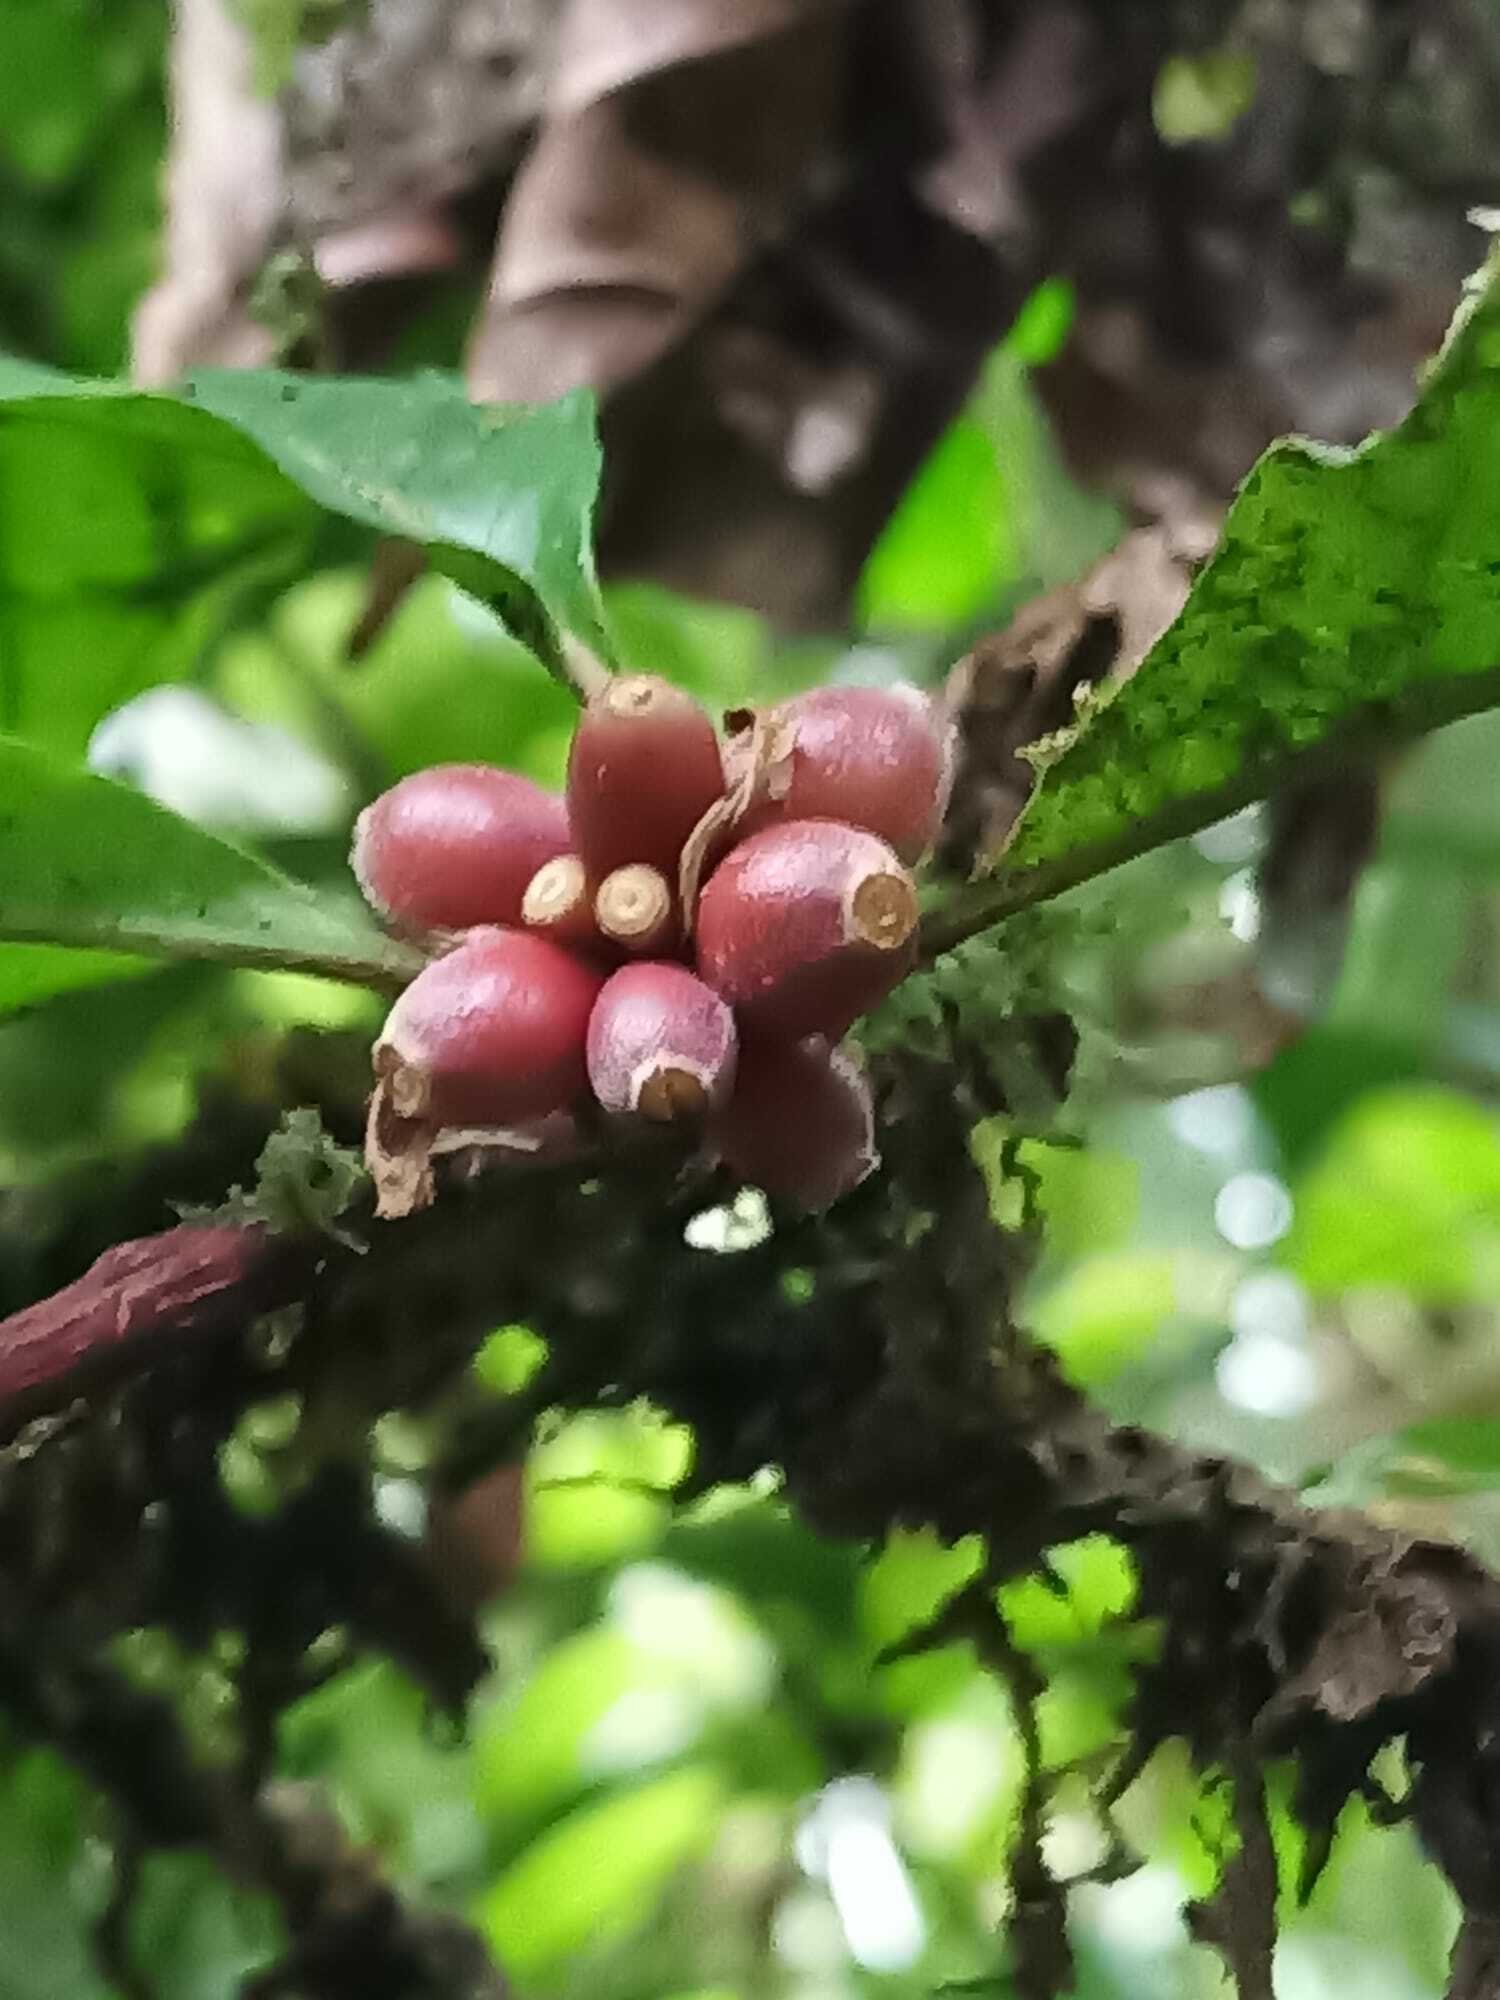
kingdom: Plantae
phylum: Tracheophyta
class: Magnoliopsida
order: Gentianales
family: Rubiaceae
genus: Amaioua
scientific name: Amaioua guianensis
